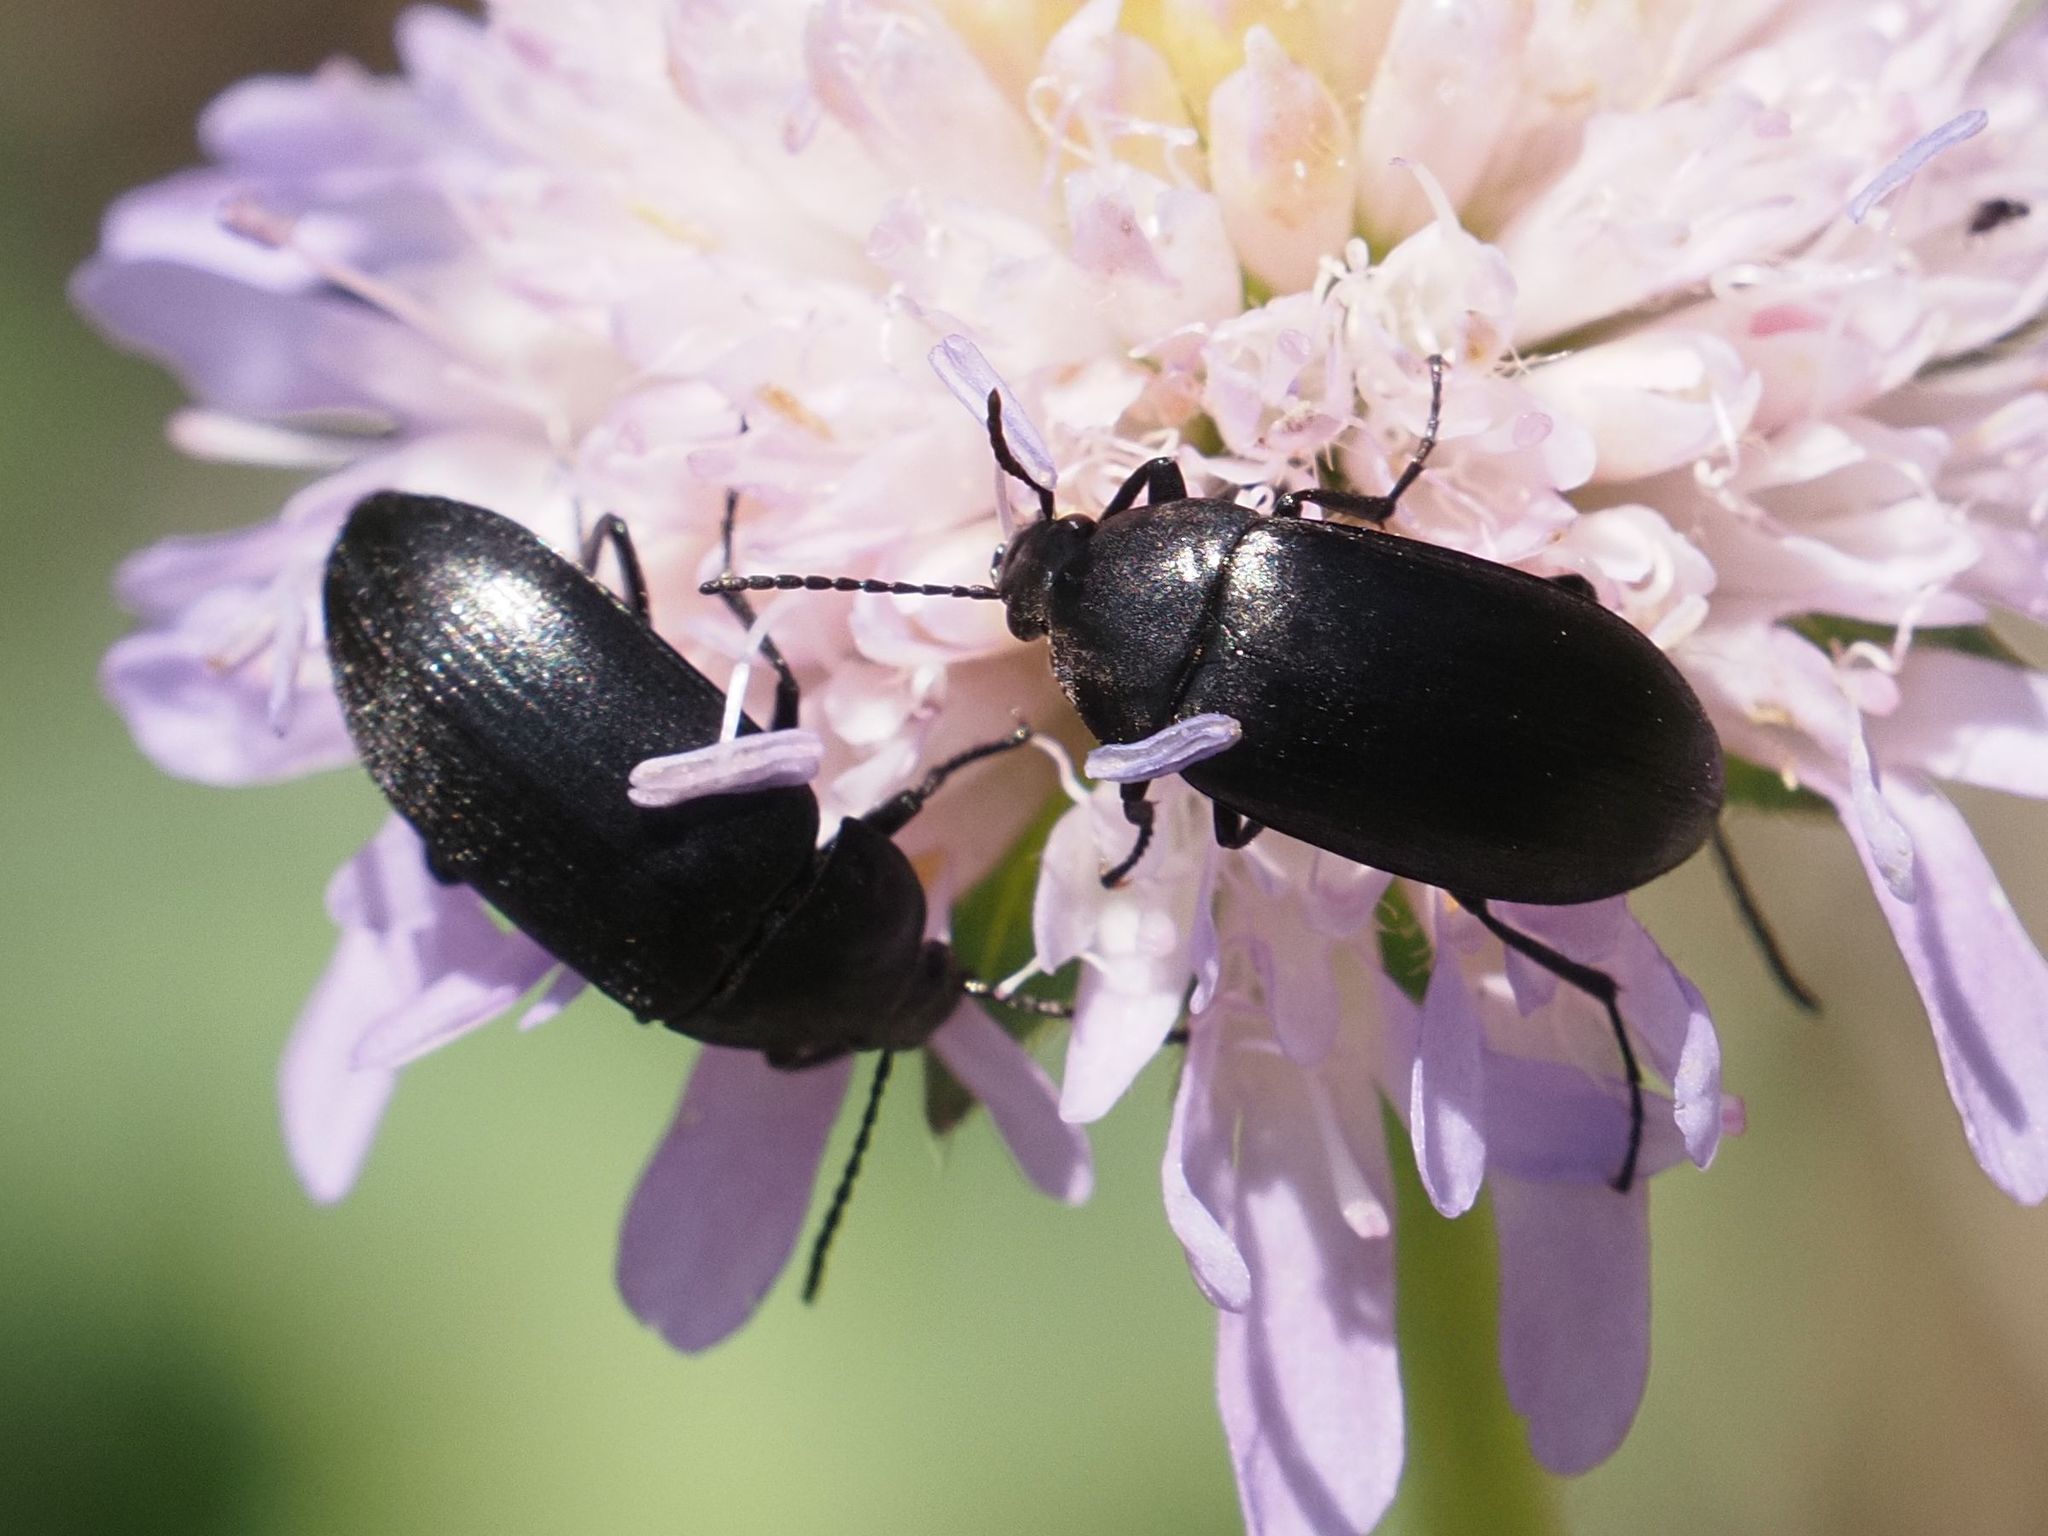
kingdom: Animalia
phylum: Arthropoda
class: Insecta
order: Coleoptera
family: Tenebrionidae
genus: Podonta
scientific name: Podonta nigrita
